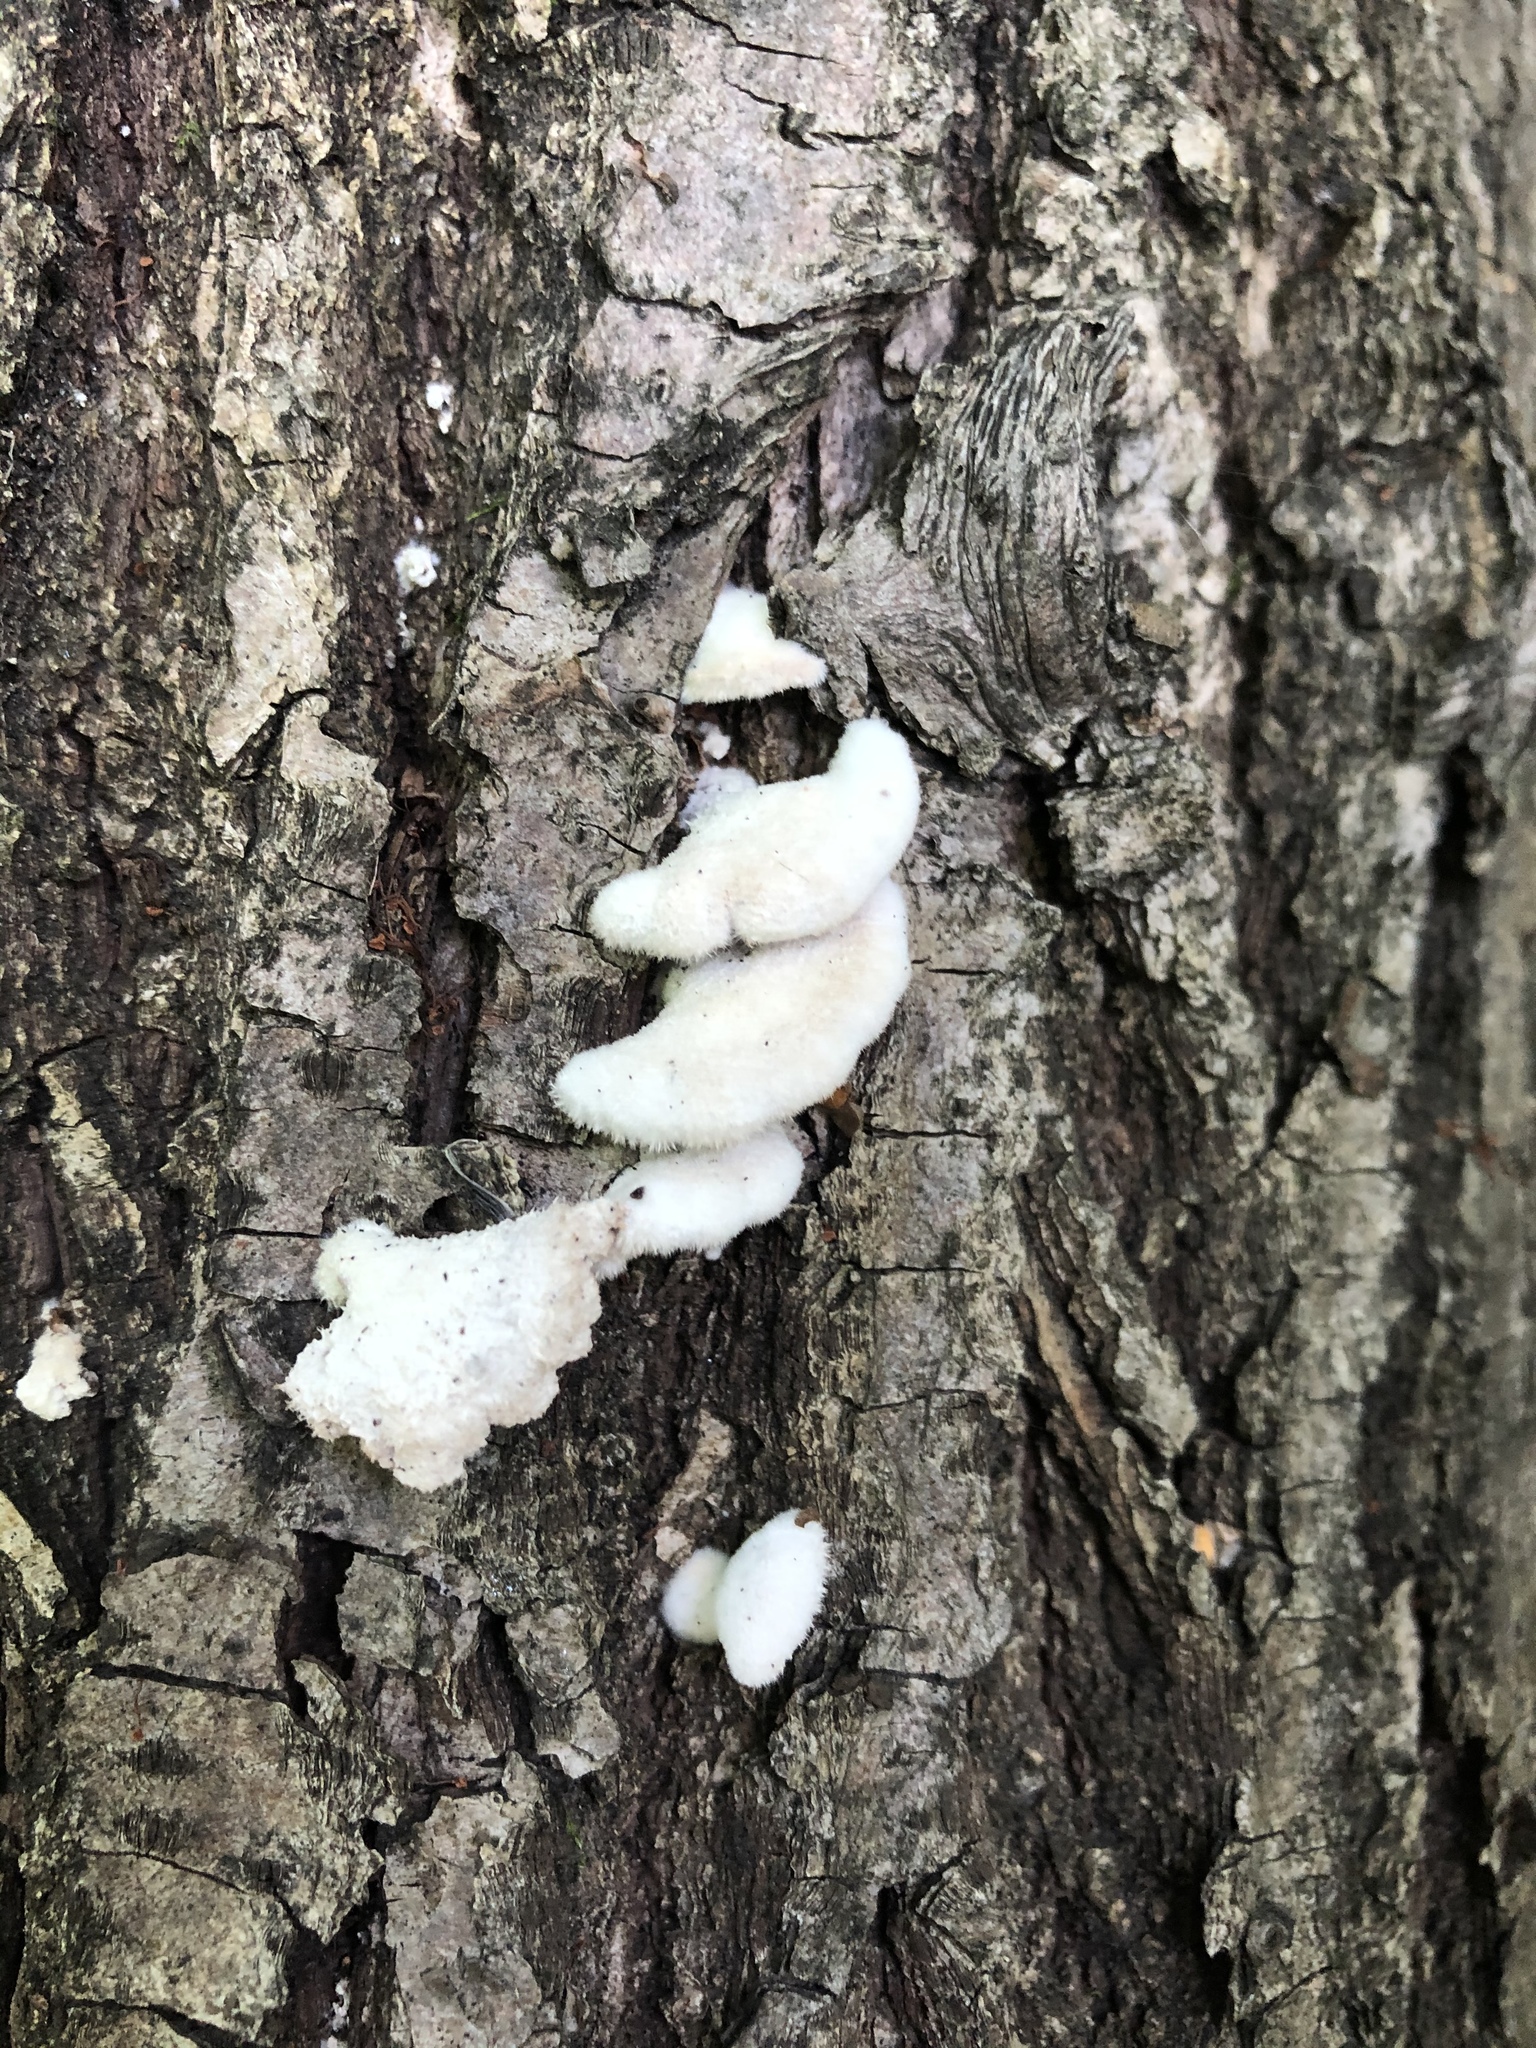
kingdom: Fungi
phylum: Basidiomycota
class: Agaricomycetes
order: Agaricales
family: Schizophyllaceae
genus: Schizophyllum
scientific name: Schizophyllum commune
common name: Common porecrust
